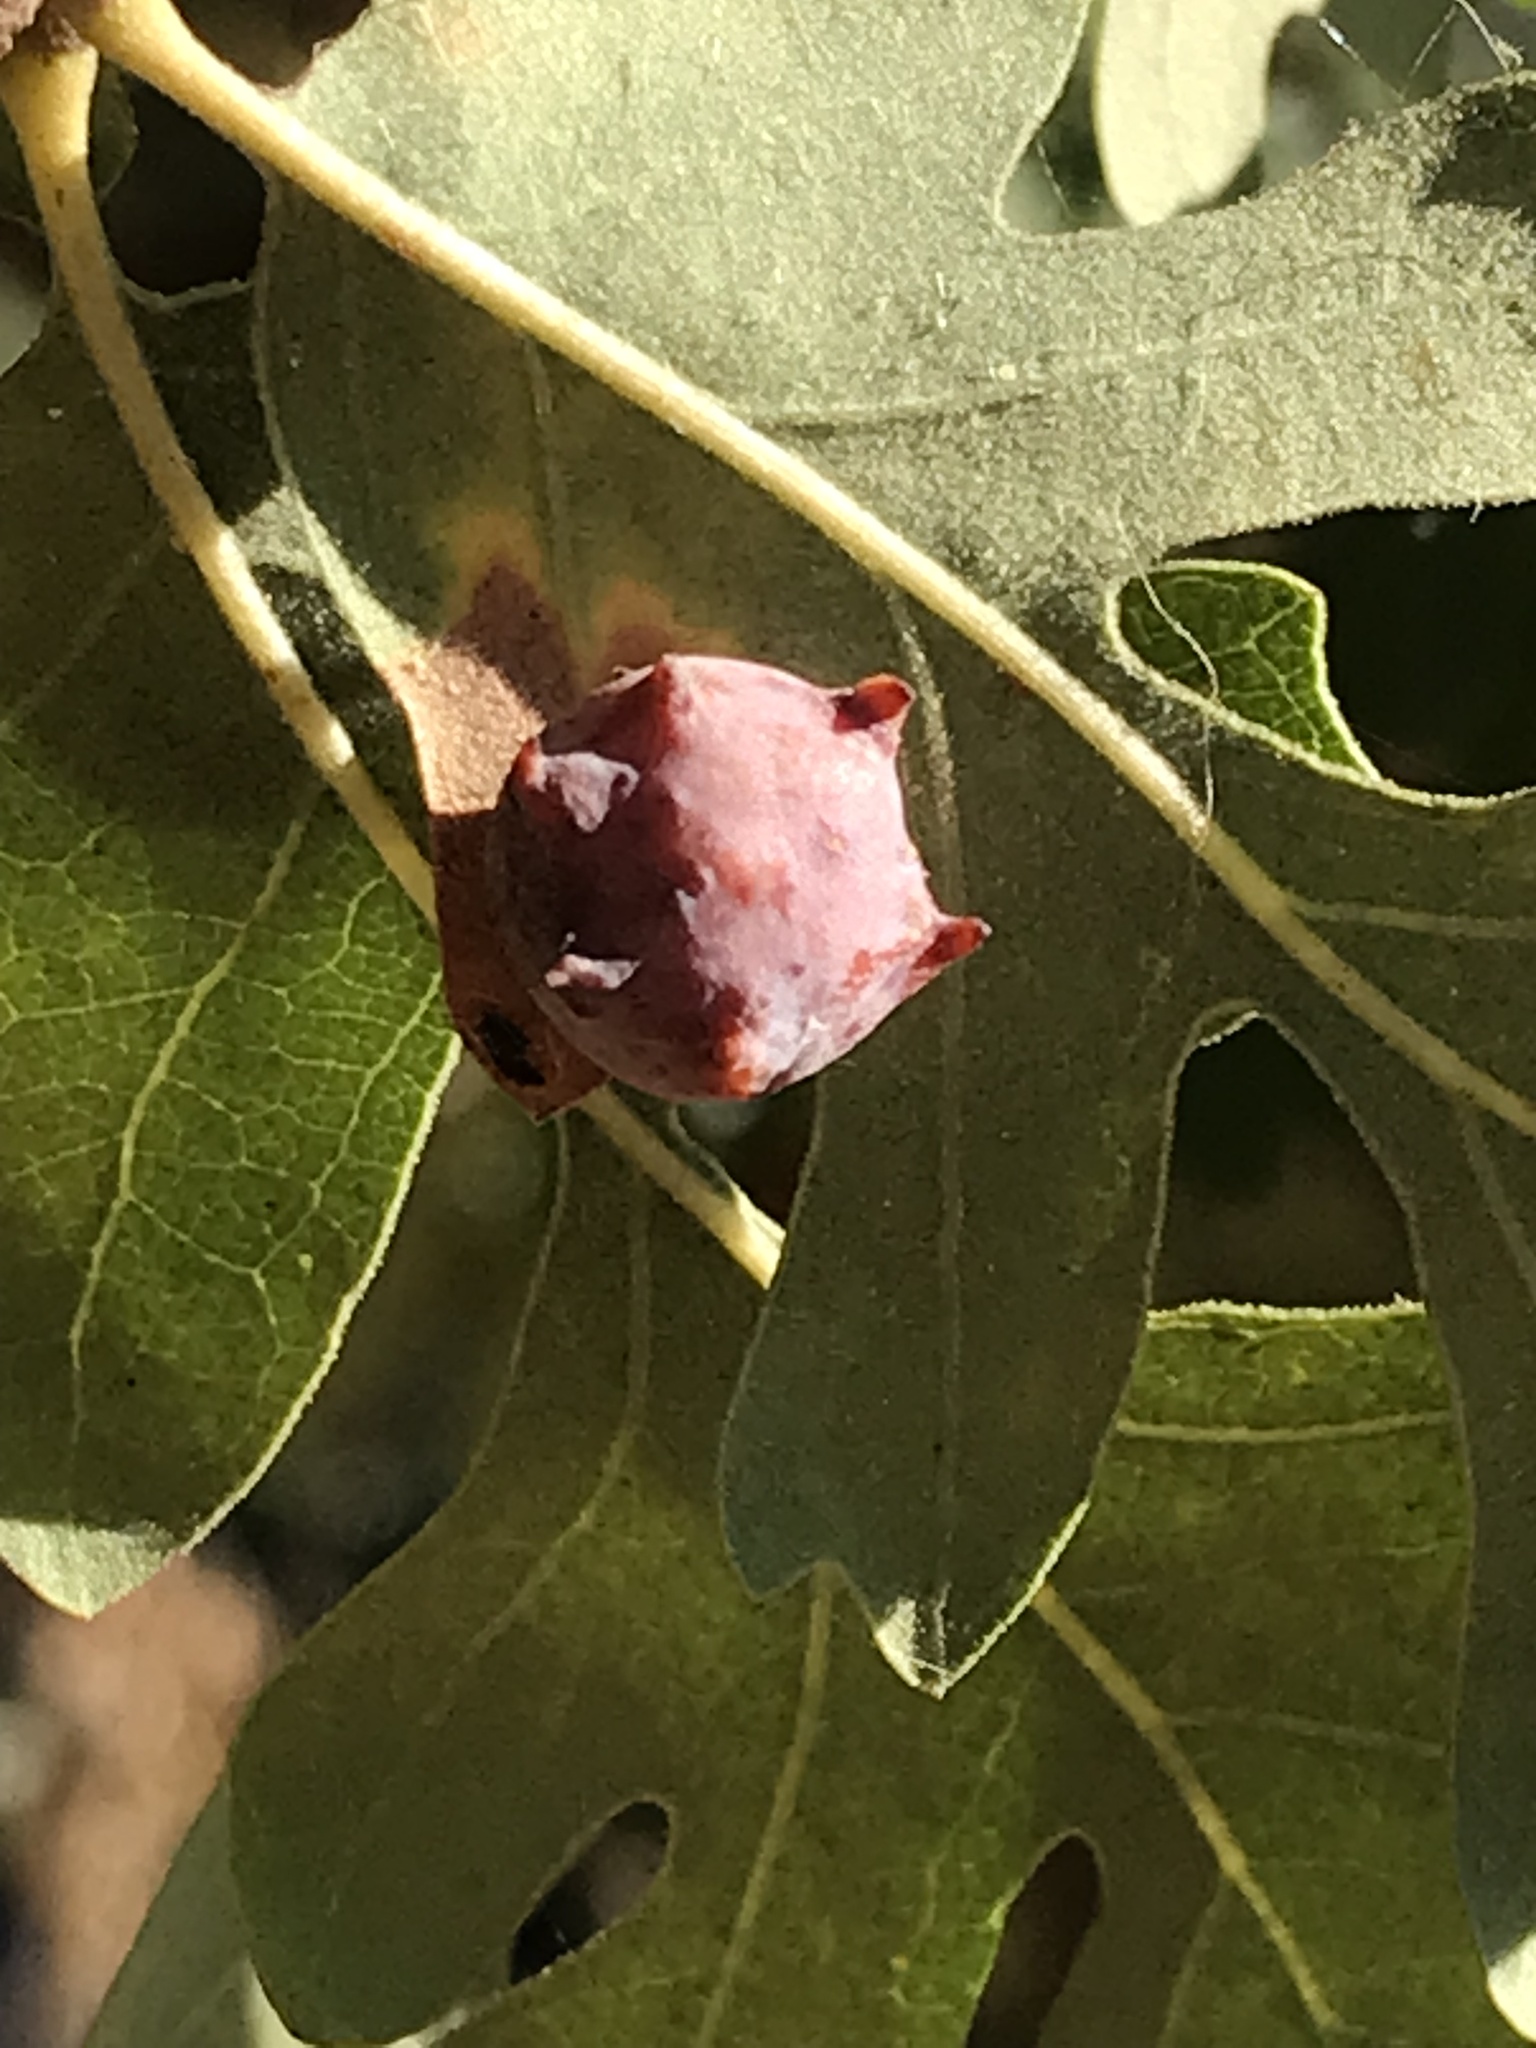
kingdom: Animalia
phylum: Arthropoda
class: Insecta
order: Hymenoptera
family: Cynipidae
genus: Cynips
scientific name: Cynips douglasi
